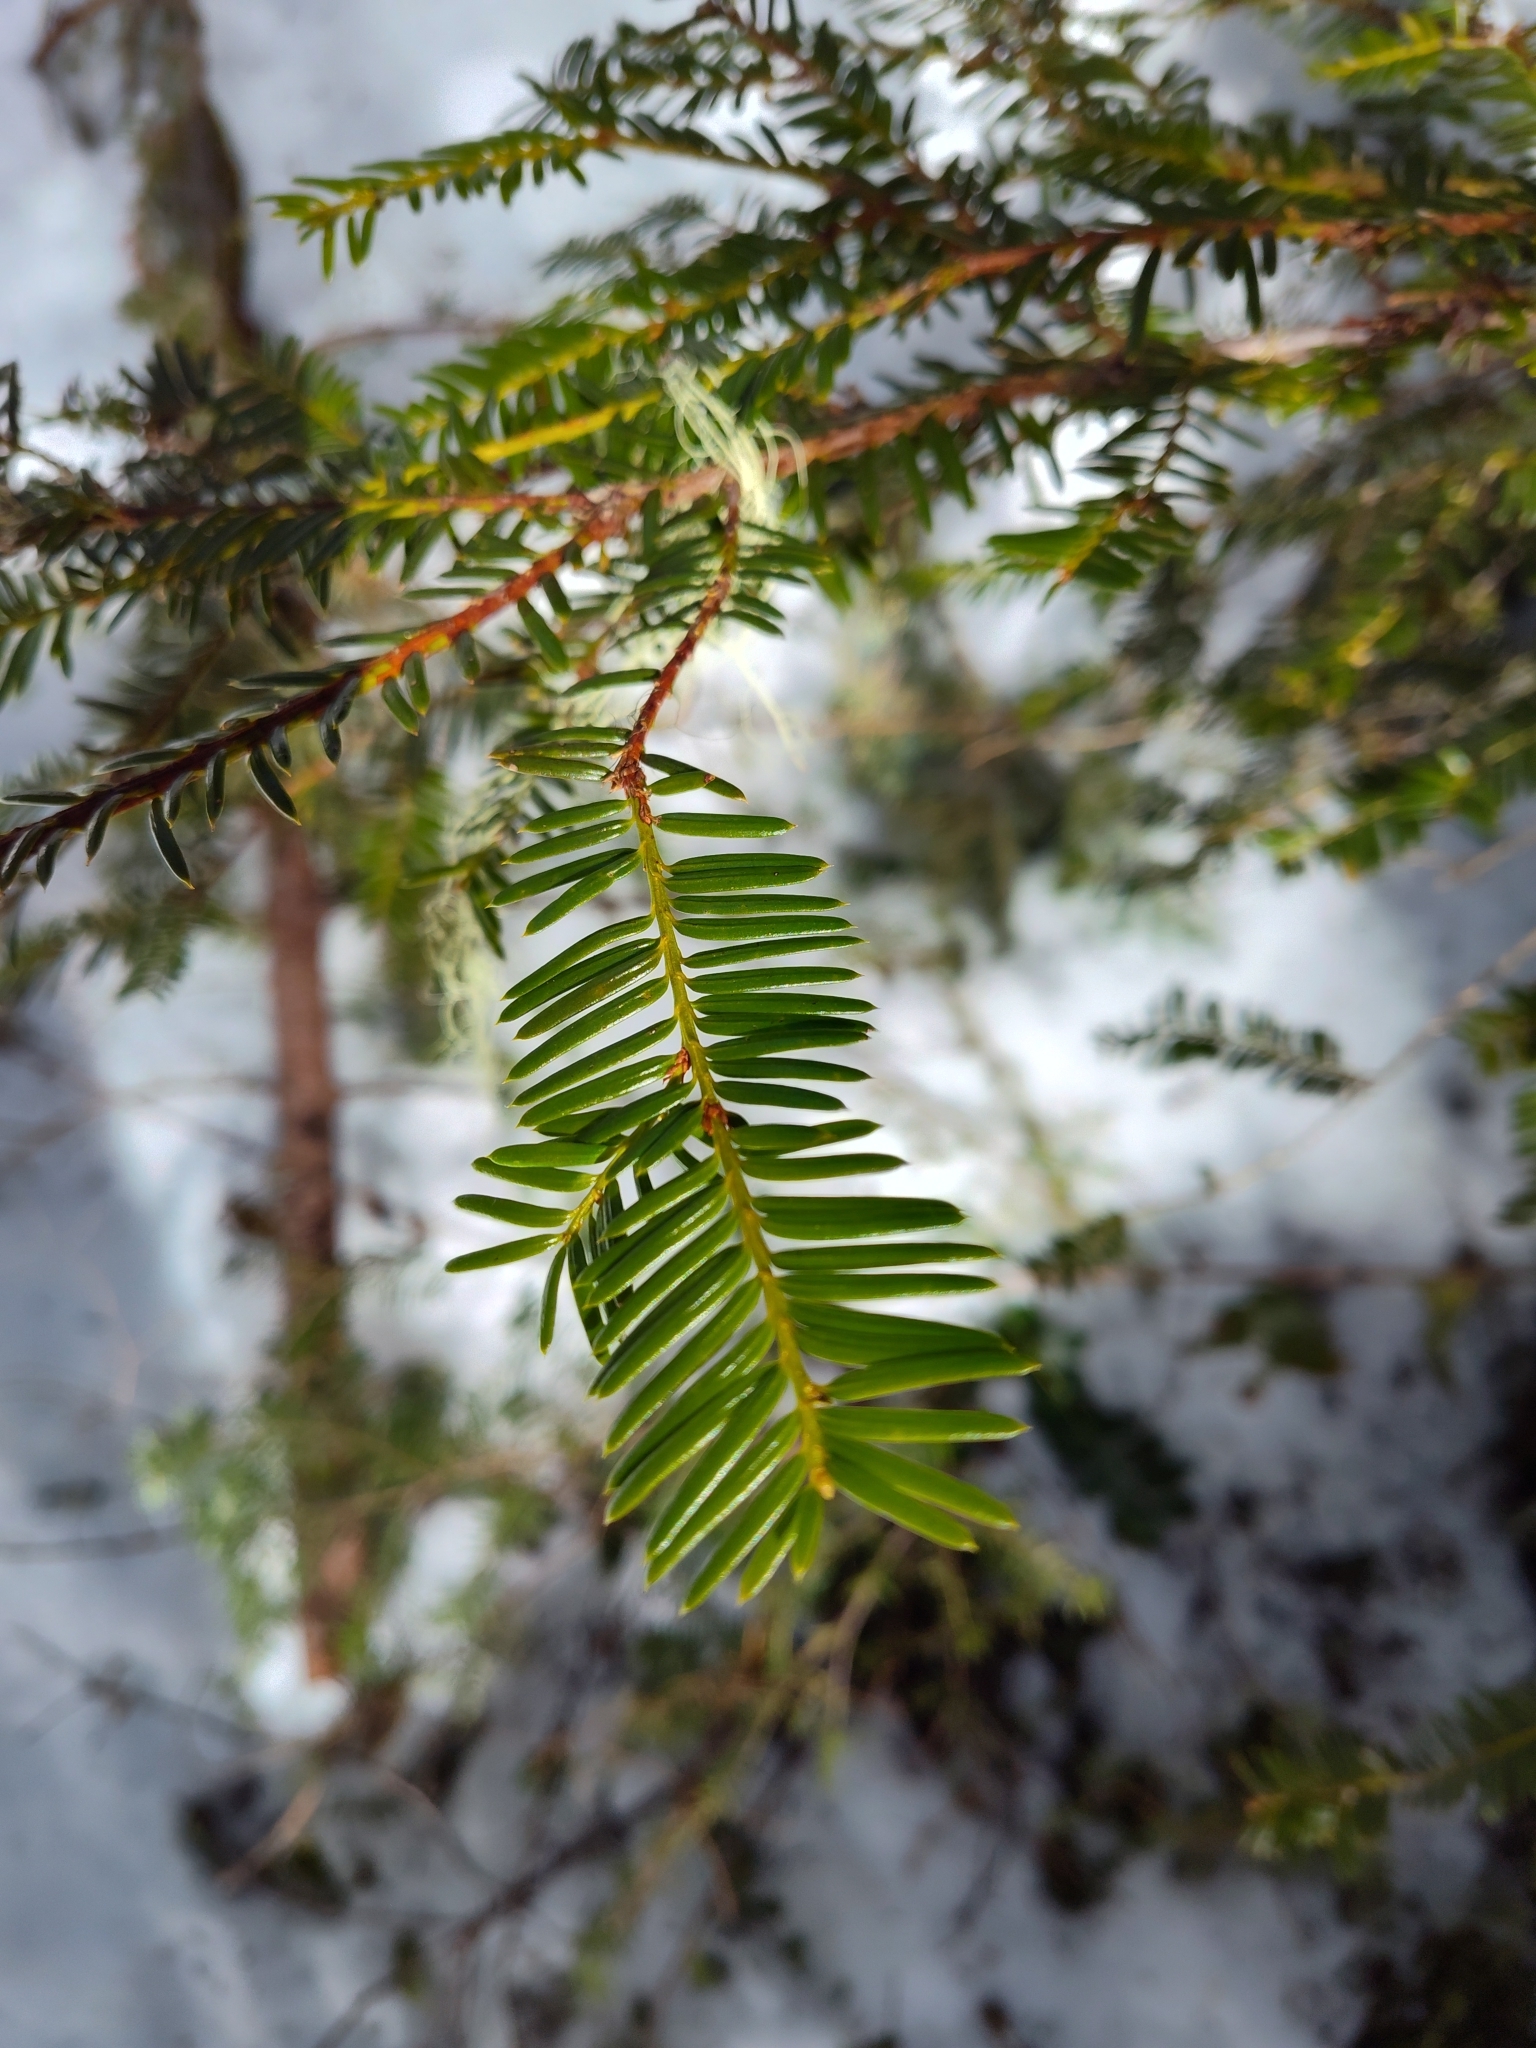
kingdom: Plantae
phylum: Tracheophyta
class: Pinopsida
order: Pinales
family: Taxaceae
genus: Taxus
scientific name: Taxus brevifolia
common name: Pacific yew
